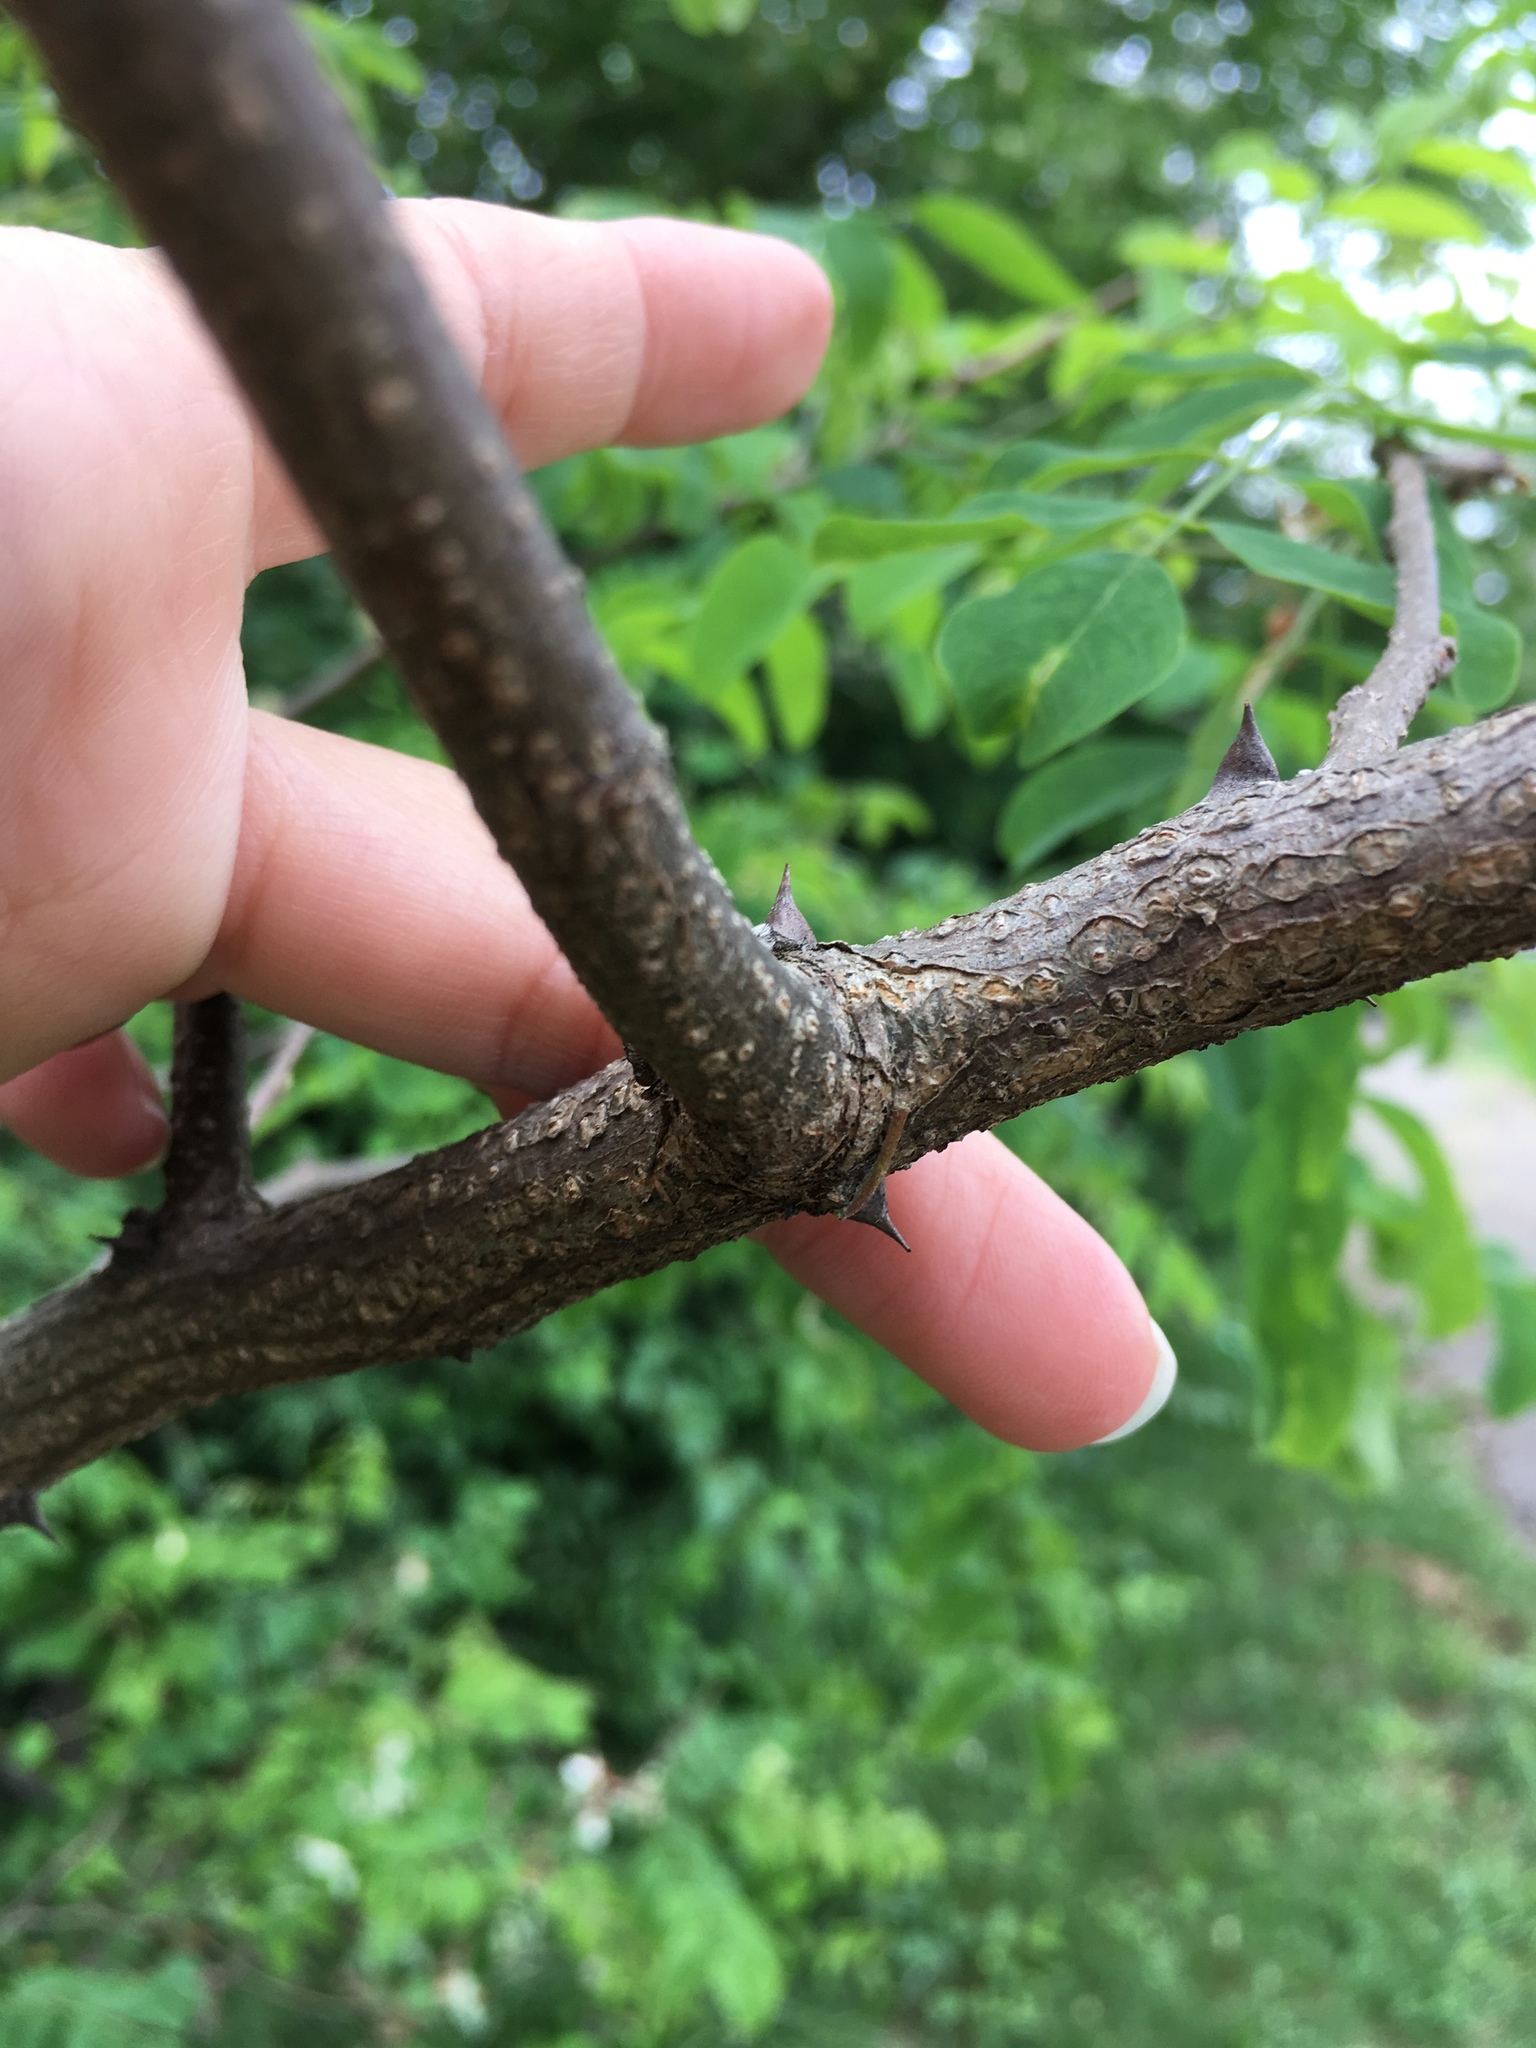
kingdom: Plantae
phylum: Tracheophyta
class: Magnoliopsida
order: Fabales
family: Fabaceae
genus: Robinia
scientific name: Robinia pseudoacacia
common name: Black locust
